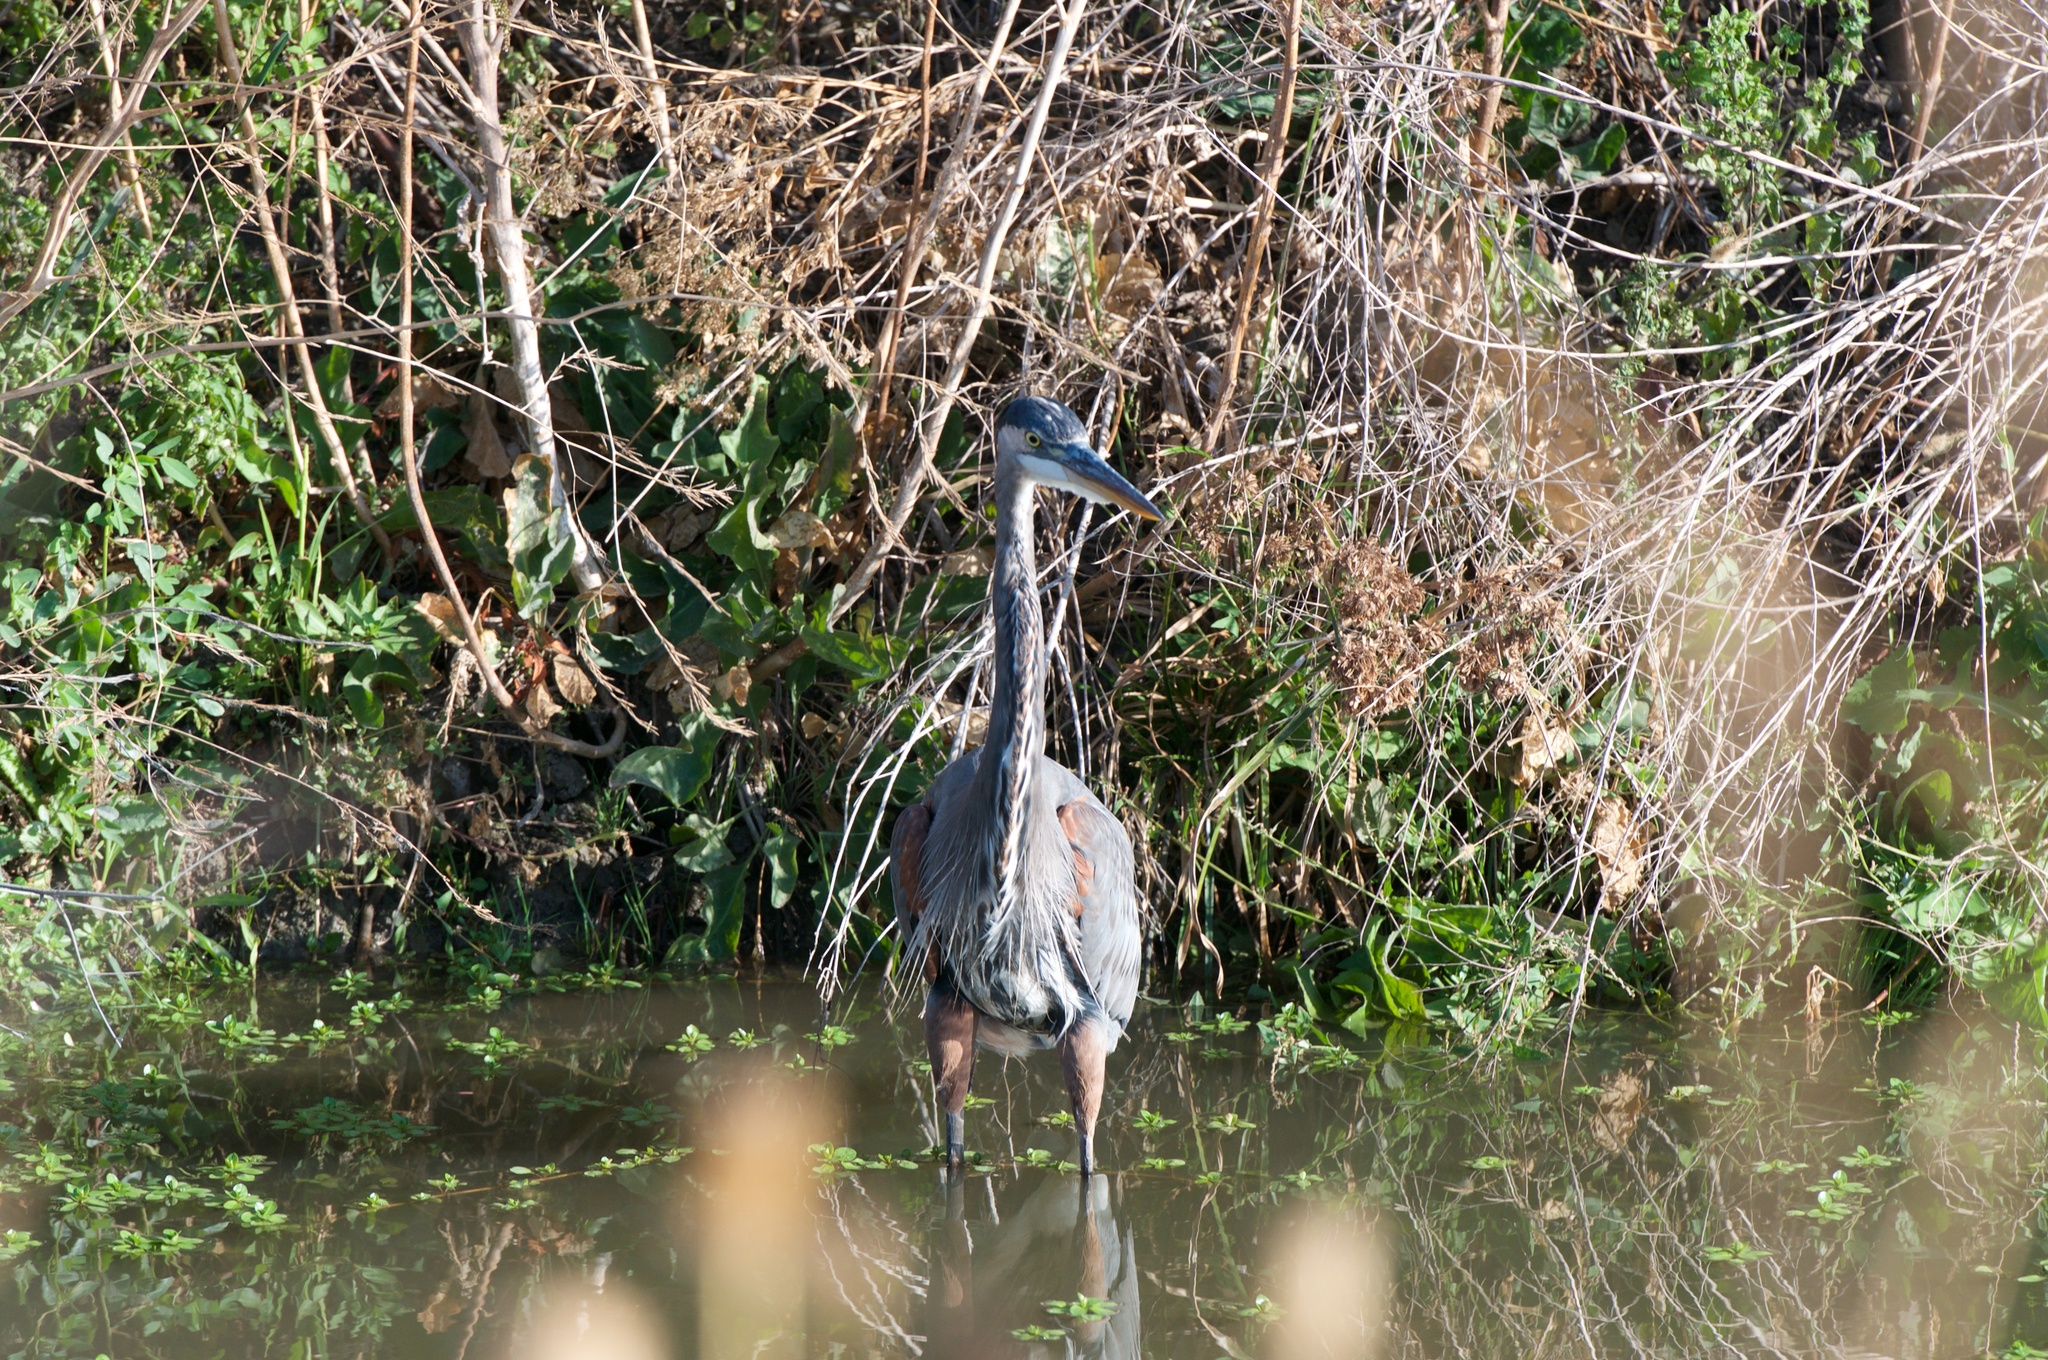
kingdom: Animalia
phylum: Chordata
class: Aves
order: Pelecaniformes
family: Ardeidae
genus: Ardea
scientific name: Ardea herodias
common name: Great blue heron
